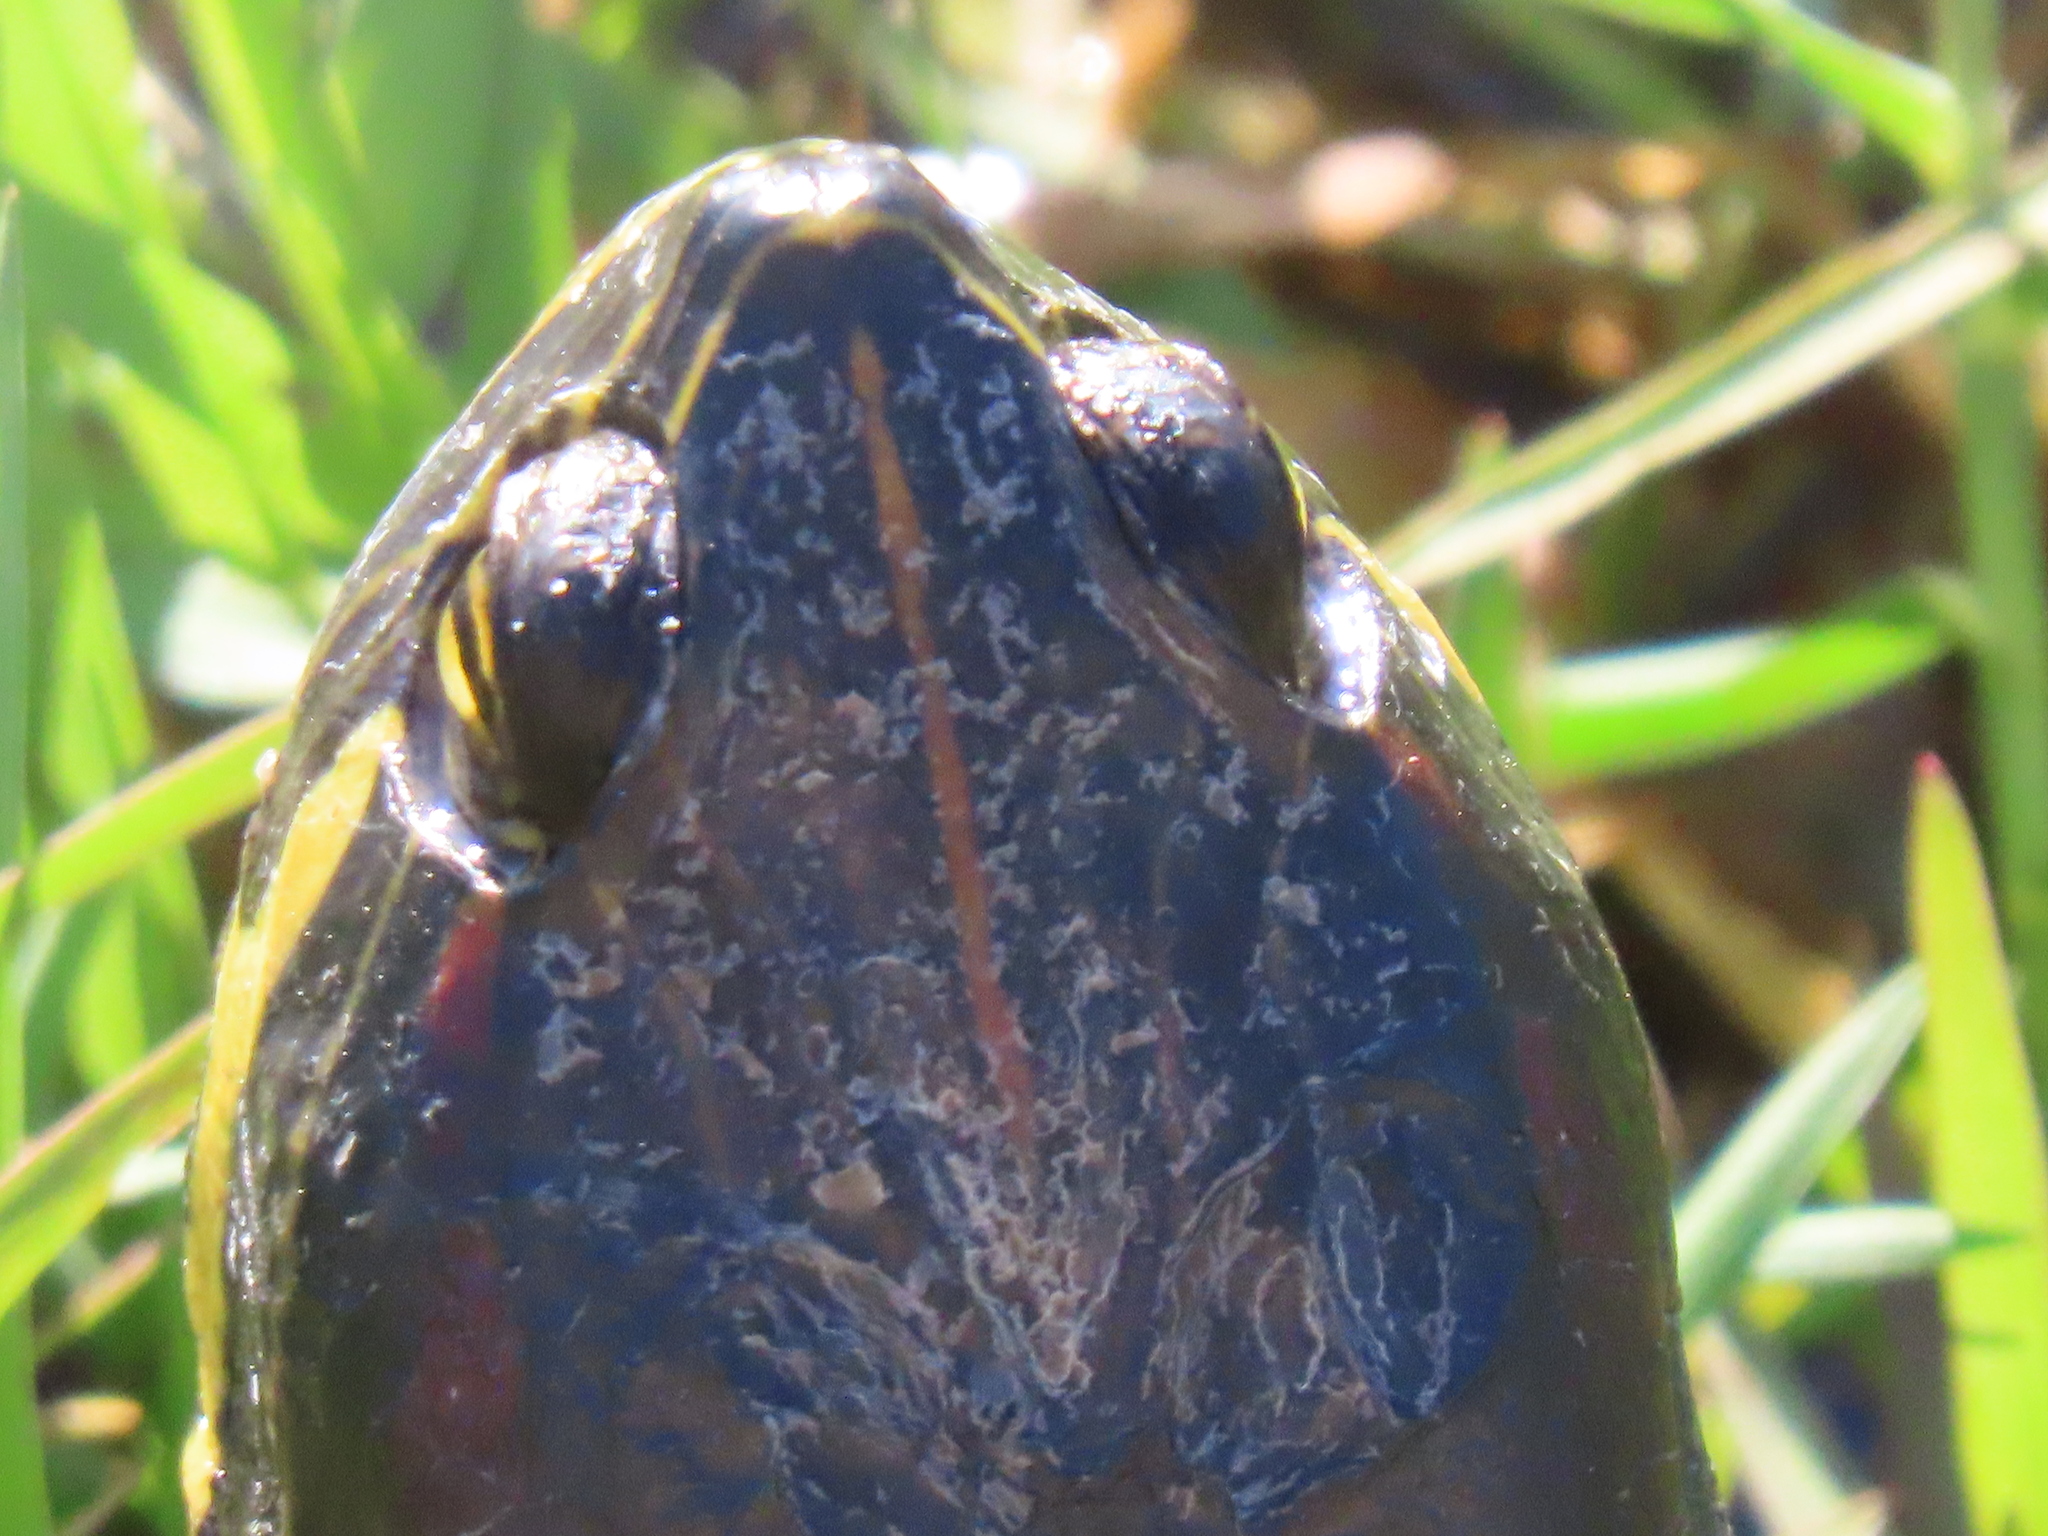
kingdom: Animalia
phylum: Chordata
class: Testudines
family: Emydidae
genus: Trachemys
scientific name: Trachemys scripta
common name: Slider
